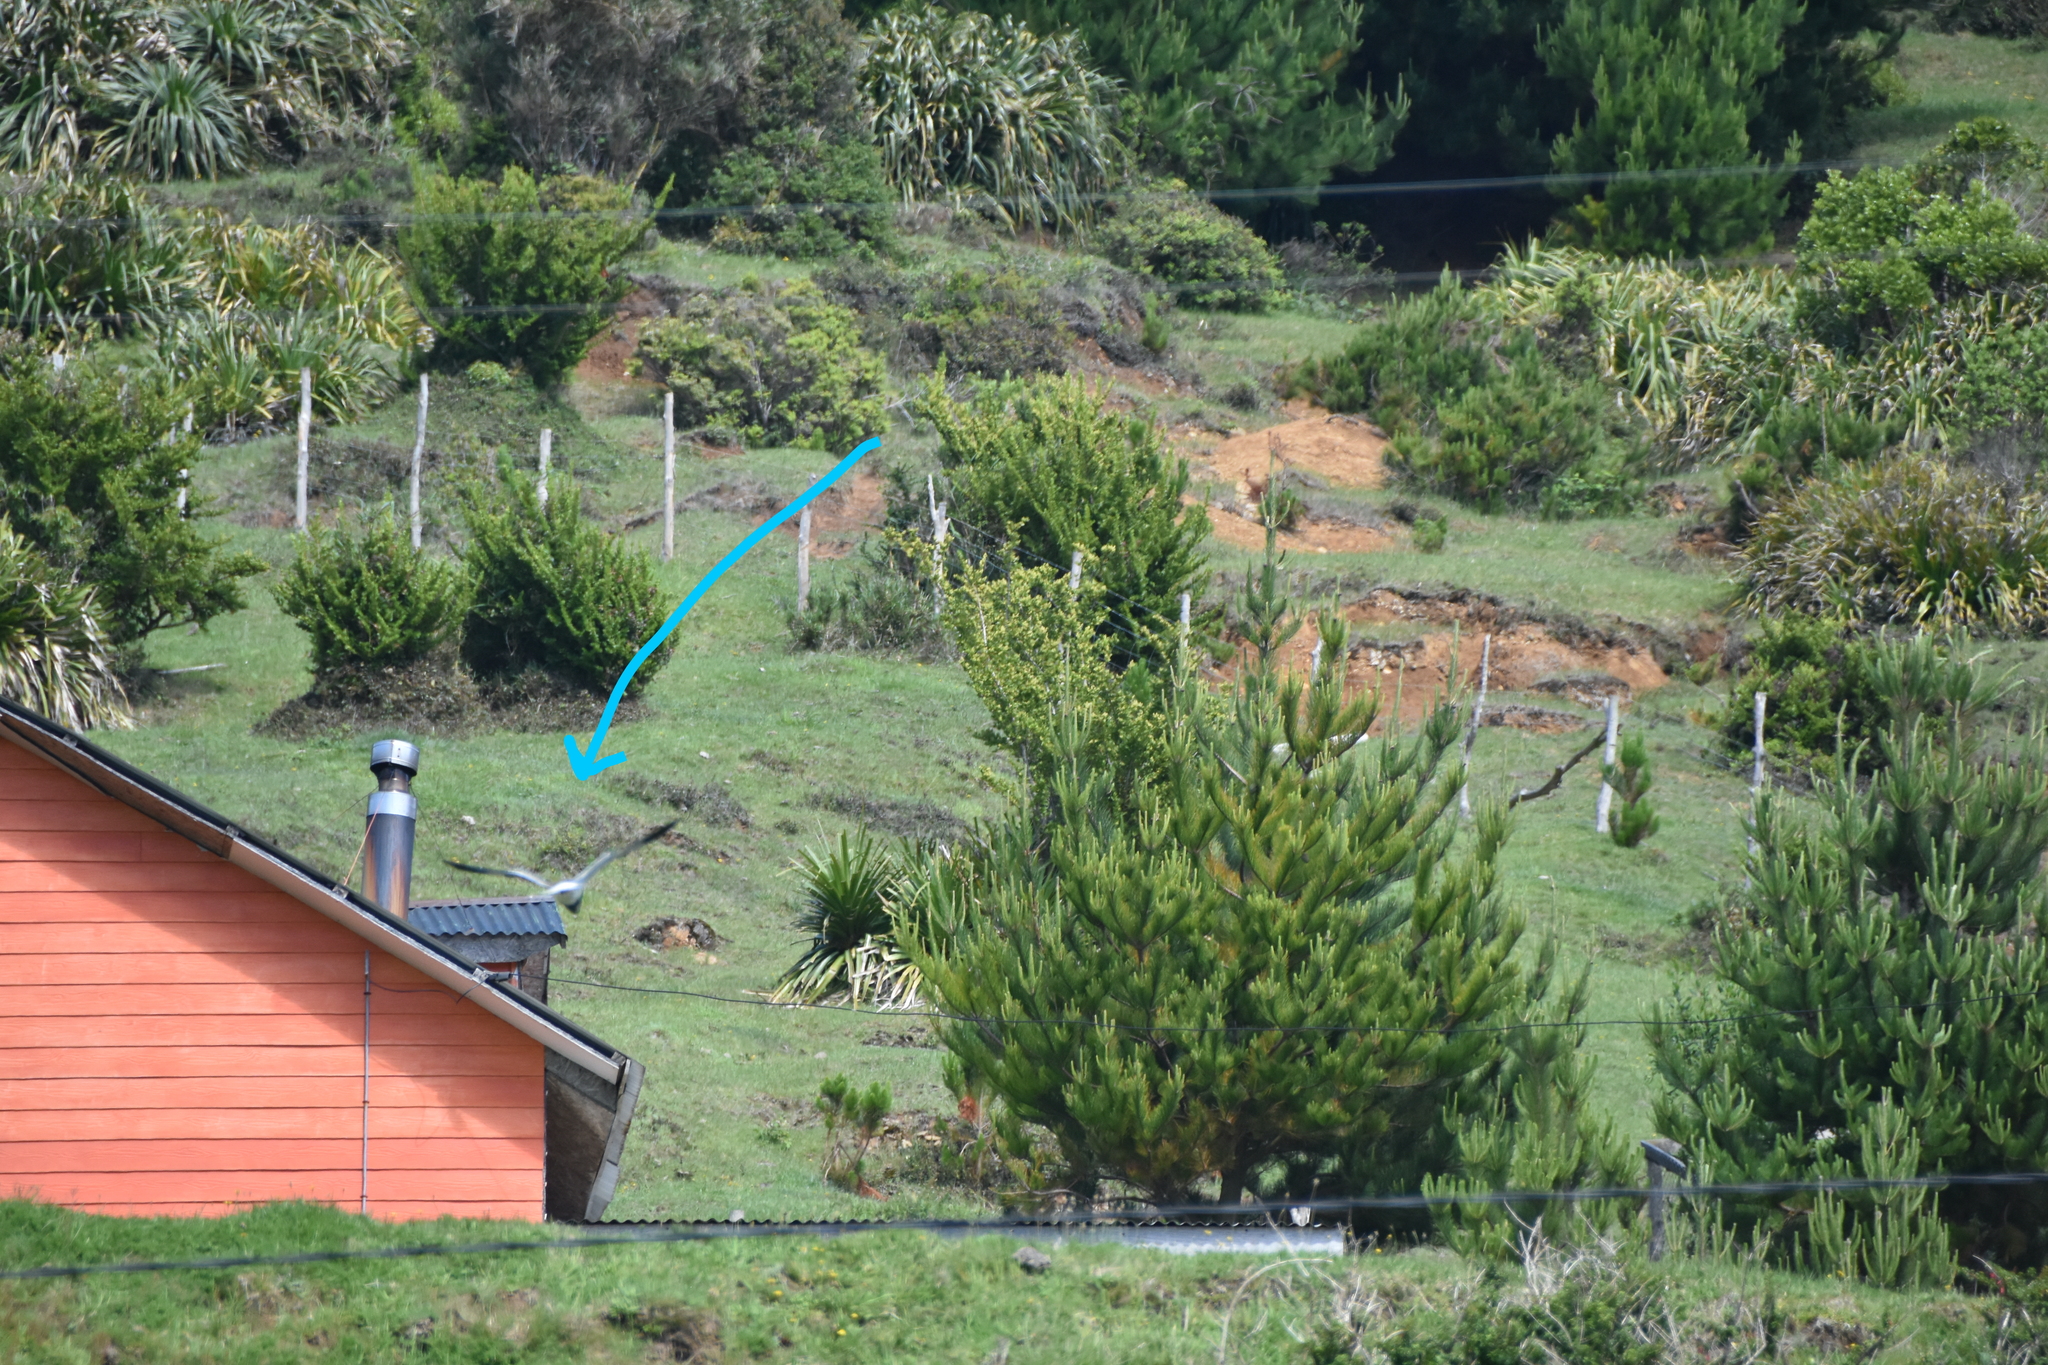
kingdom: Animalia
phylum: Chordata
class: Aves
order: Charadriiformes
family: Charadriidae
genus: Vanellus
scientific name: Vanellus chilensis
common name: Southern lapwing
